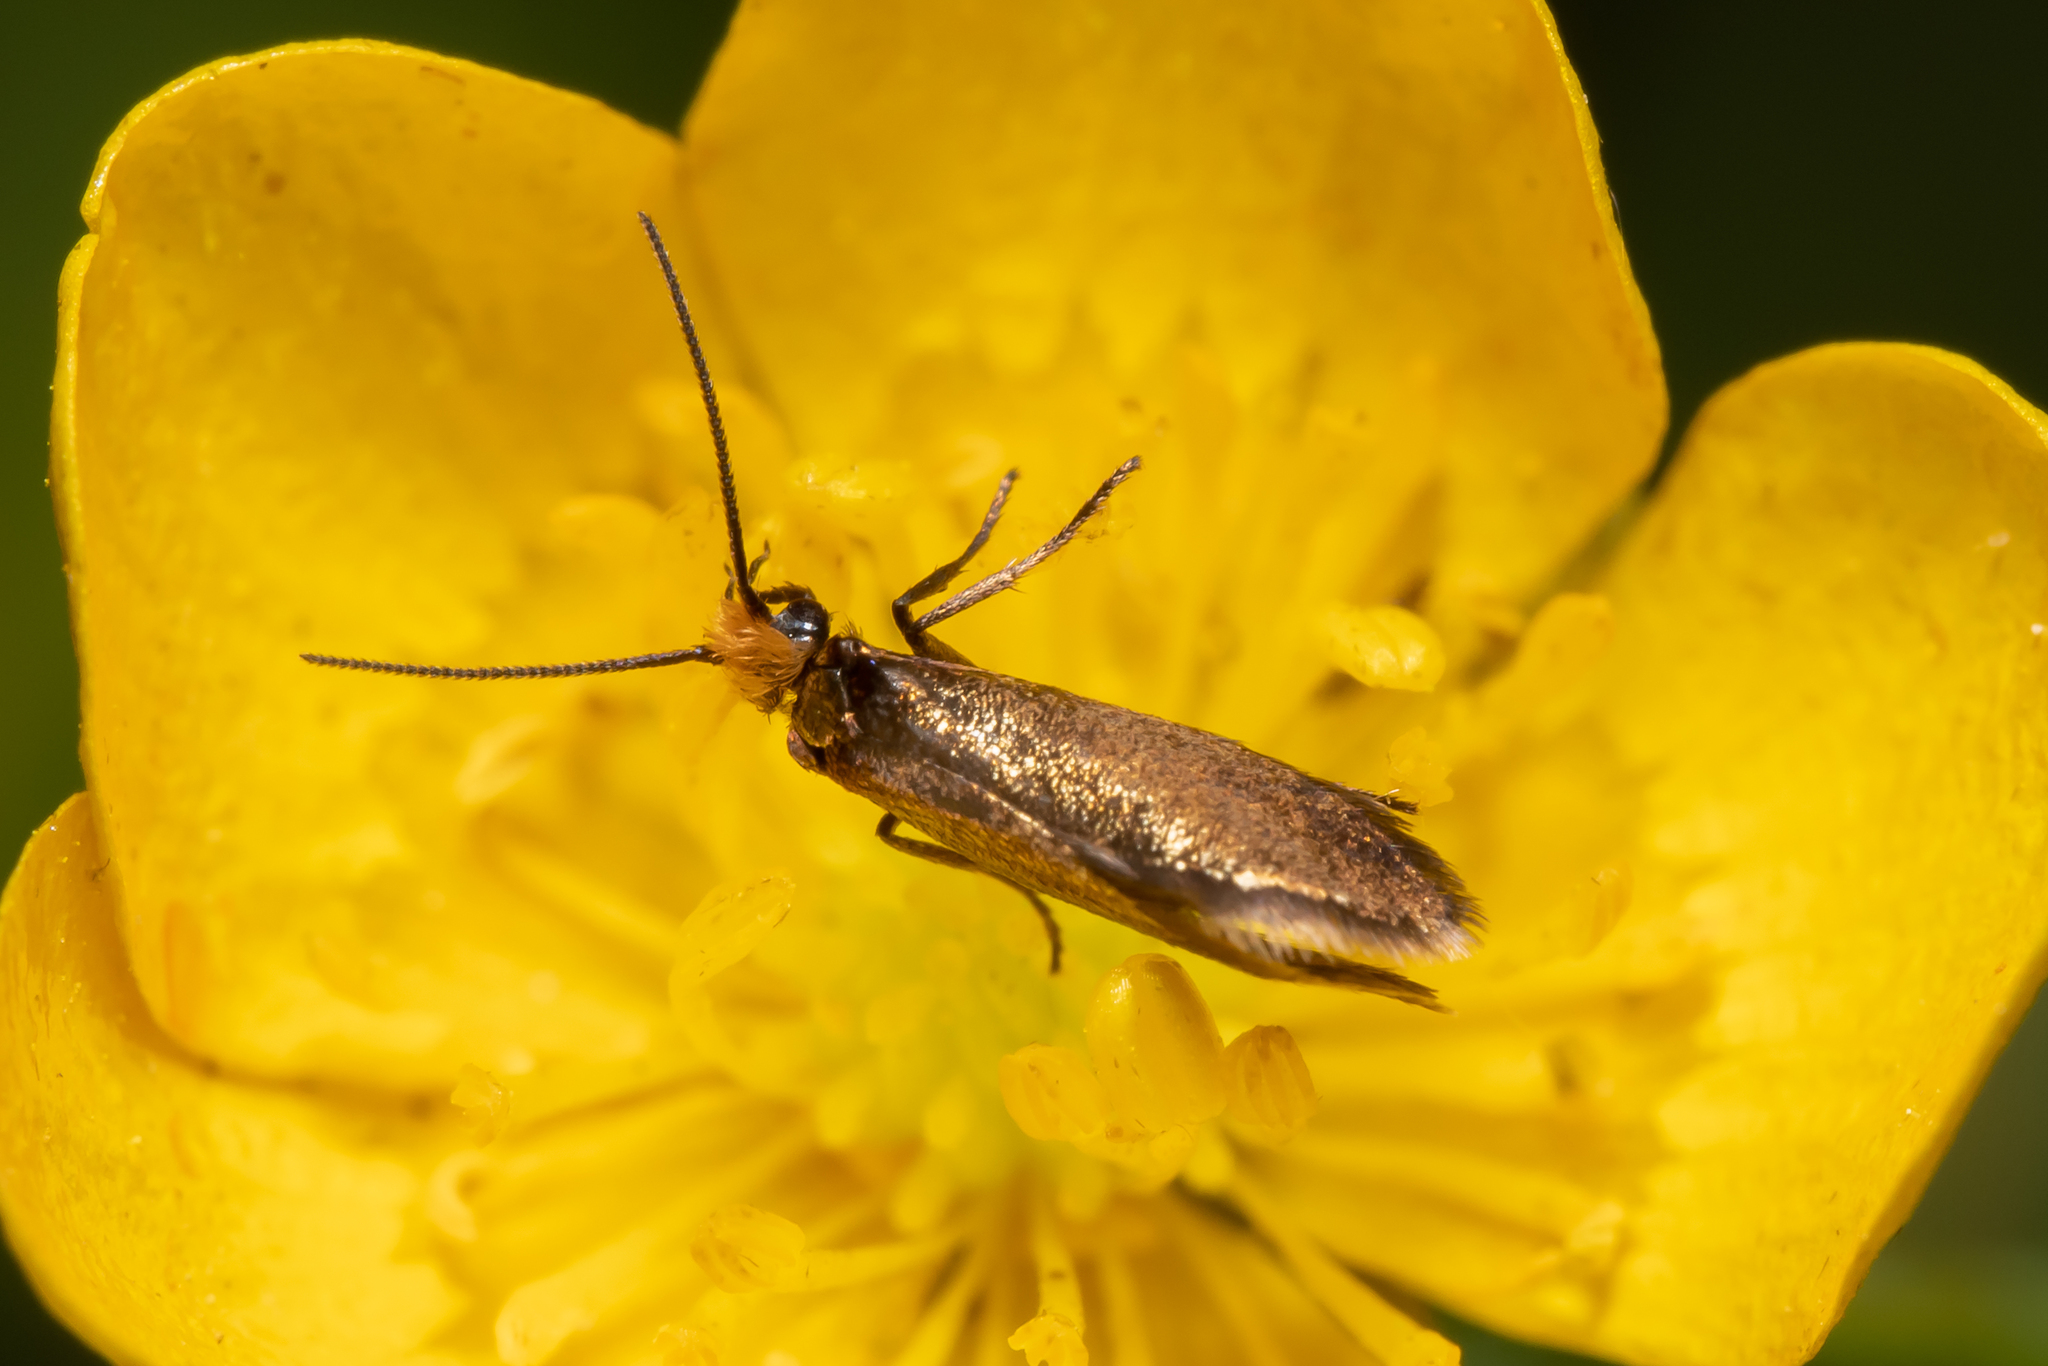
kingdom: Animalia
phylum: Arthropoda
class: Insecta
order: Lepidoptera
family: Micropterigidae
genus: Micropterix
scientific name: Micropterix calthella
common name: Plain gold
